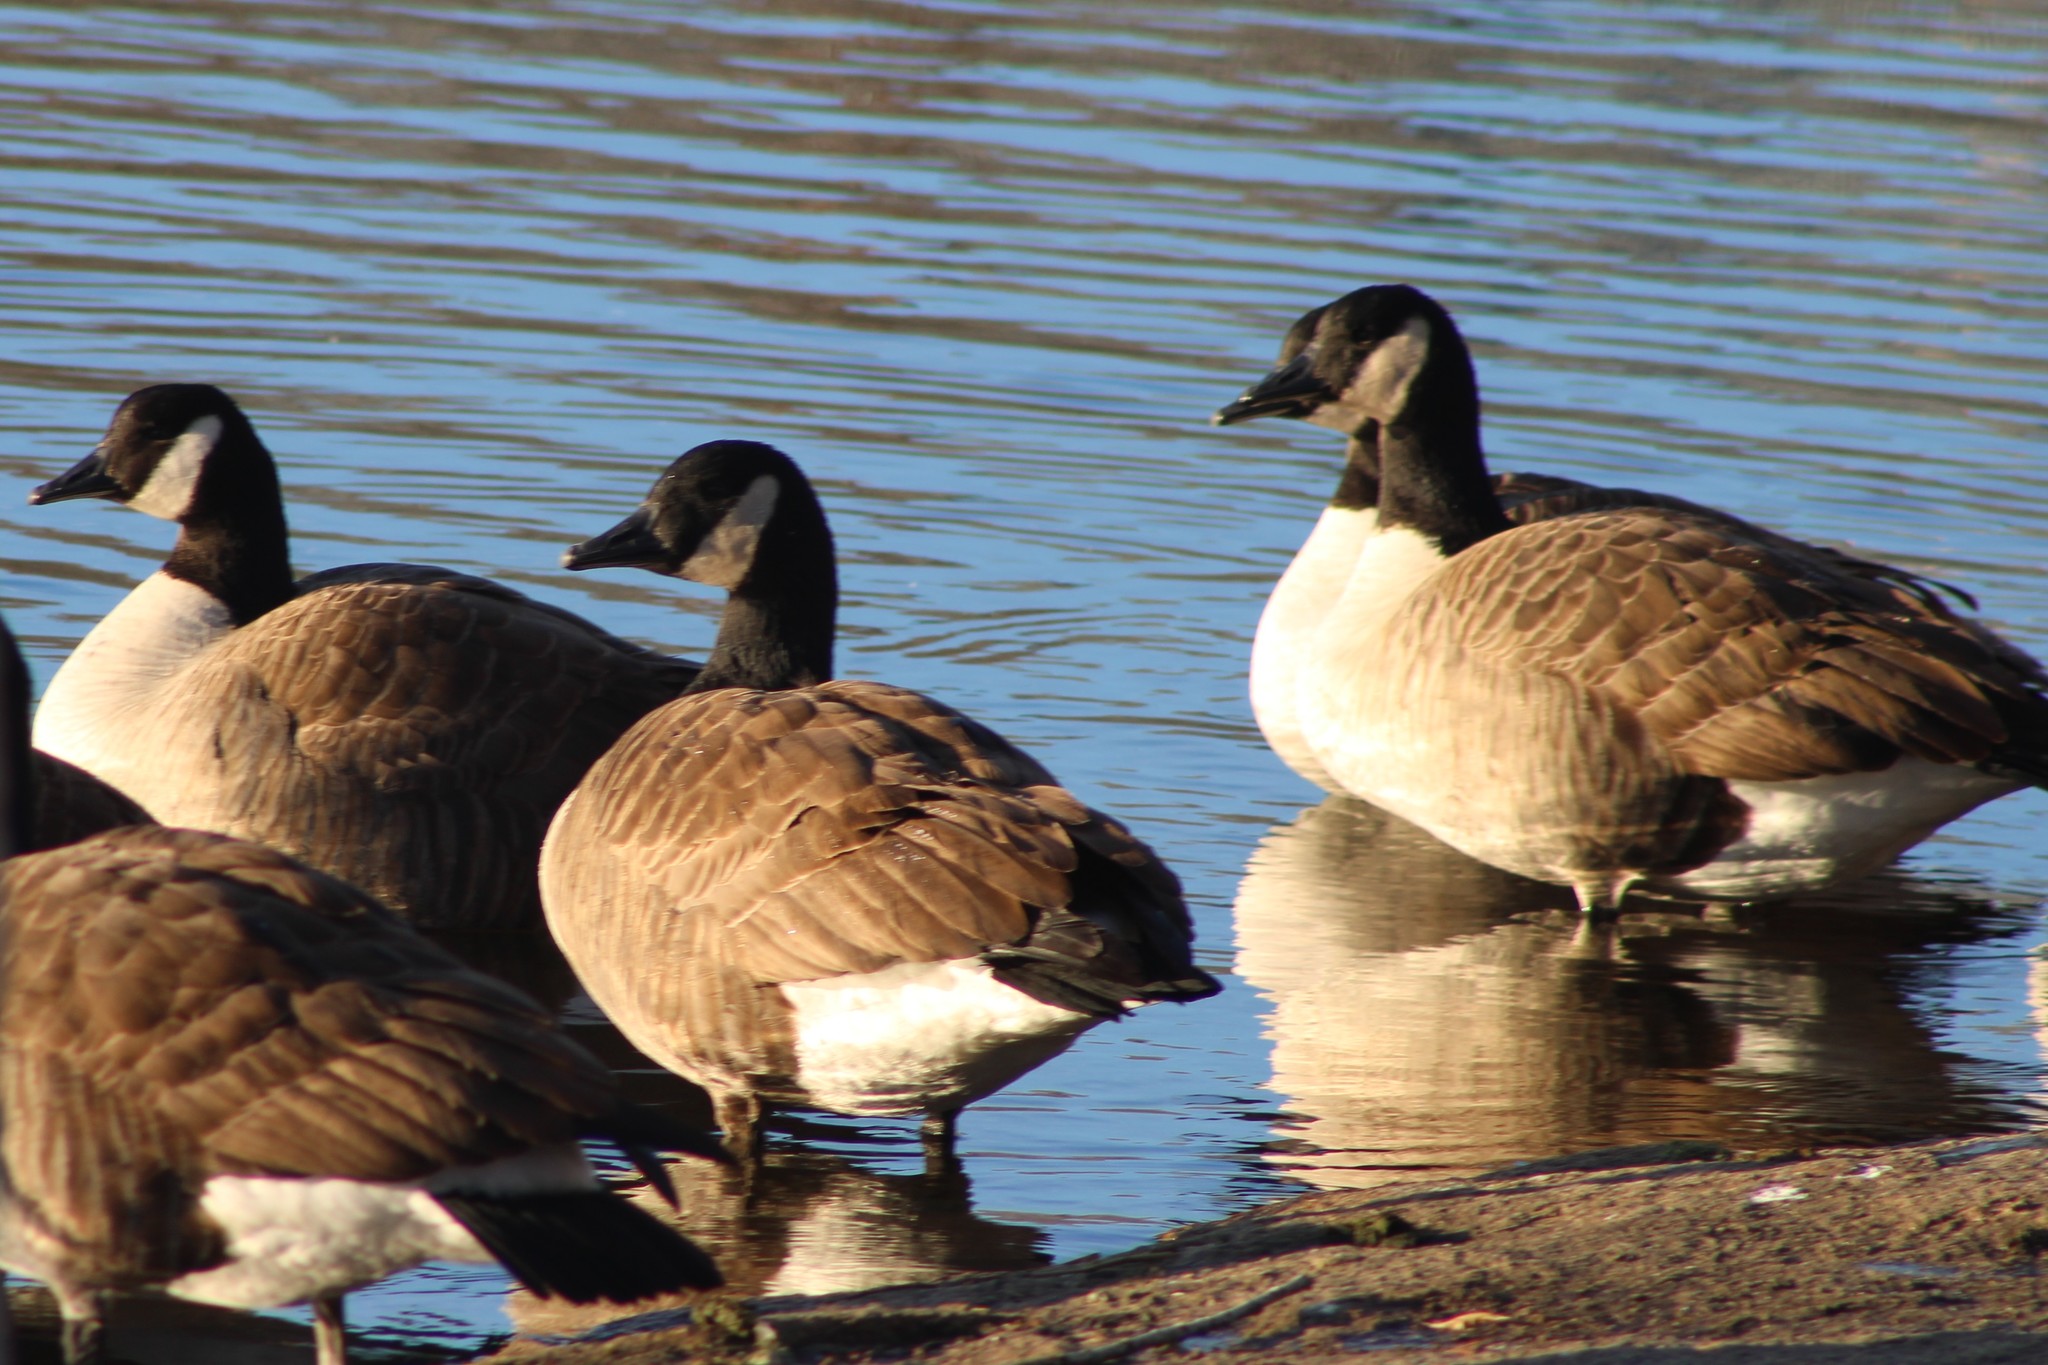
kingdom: Animalia
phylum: Chordata
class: Aves
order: Anseriformes
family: Anatidae
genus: Branta
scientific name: Branta canadensis
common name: Canada goose
